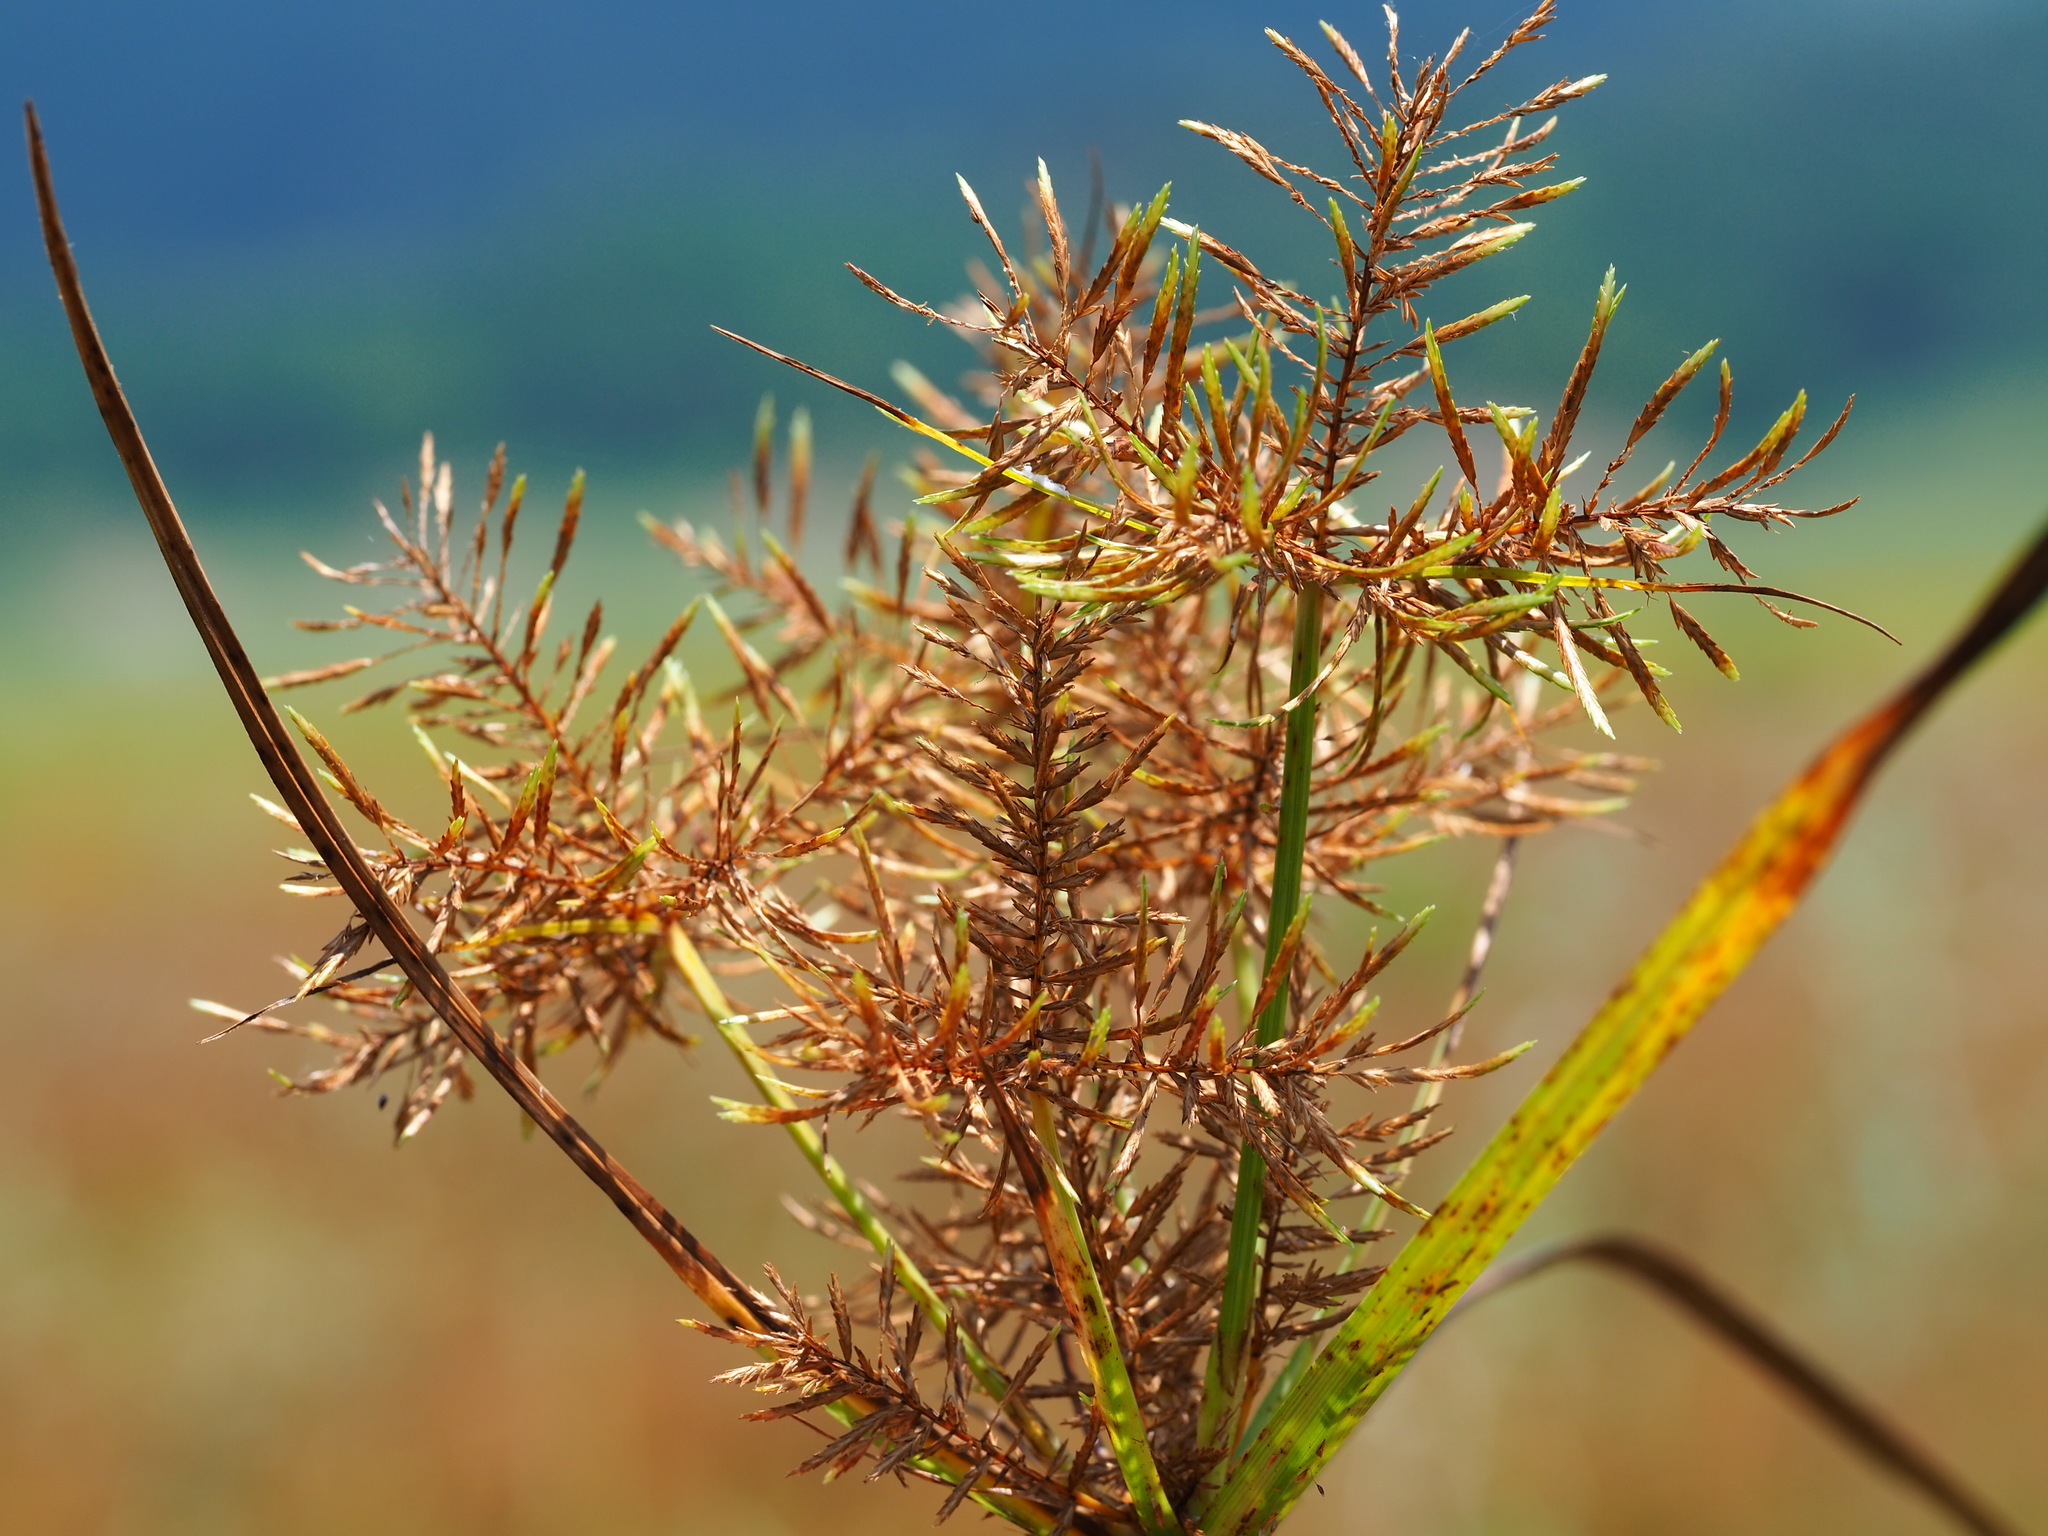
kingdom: Plantae
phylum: Tracheophyta
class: Liliopsida
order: Poales
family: Cyperaceae
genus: Cyperus
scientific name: Cyperus digitatus
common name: Finger flatsedge
